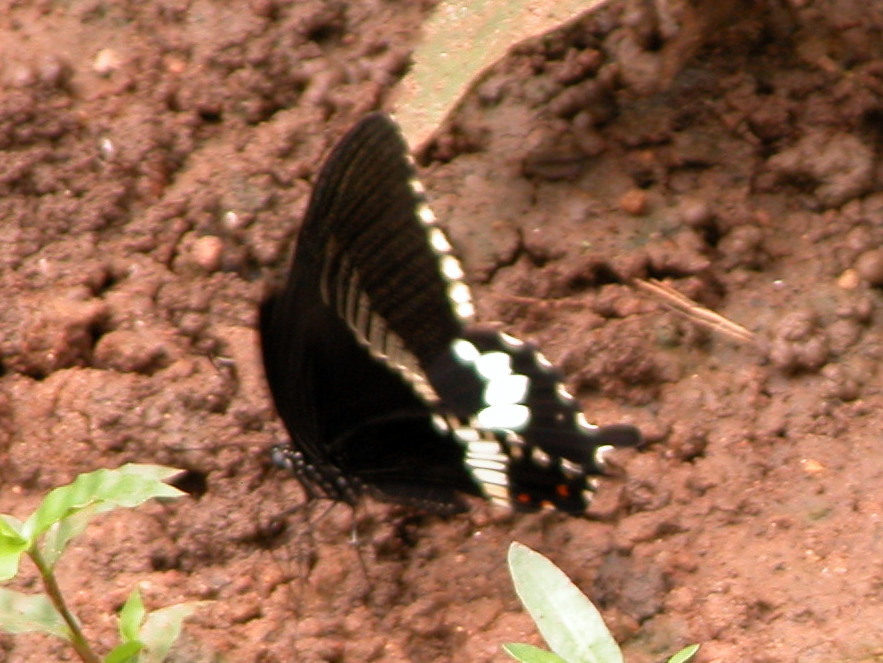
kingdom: Animalia
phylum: Arthropoda
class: Insecta
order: Lepidoptera
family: Papilionidae
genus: Papilio
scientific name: Papilio polytes
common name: Common mormon
